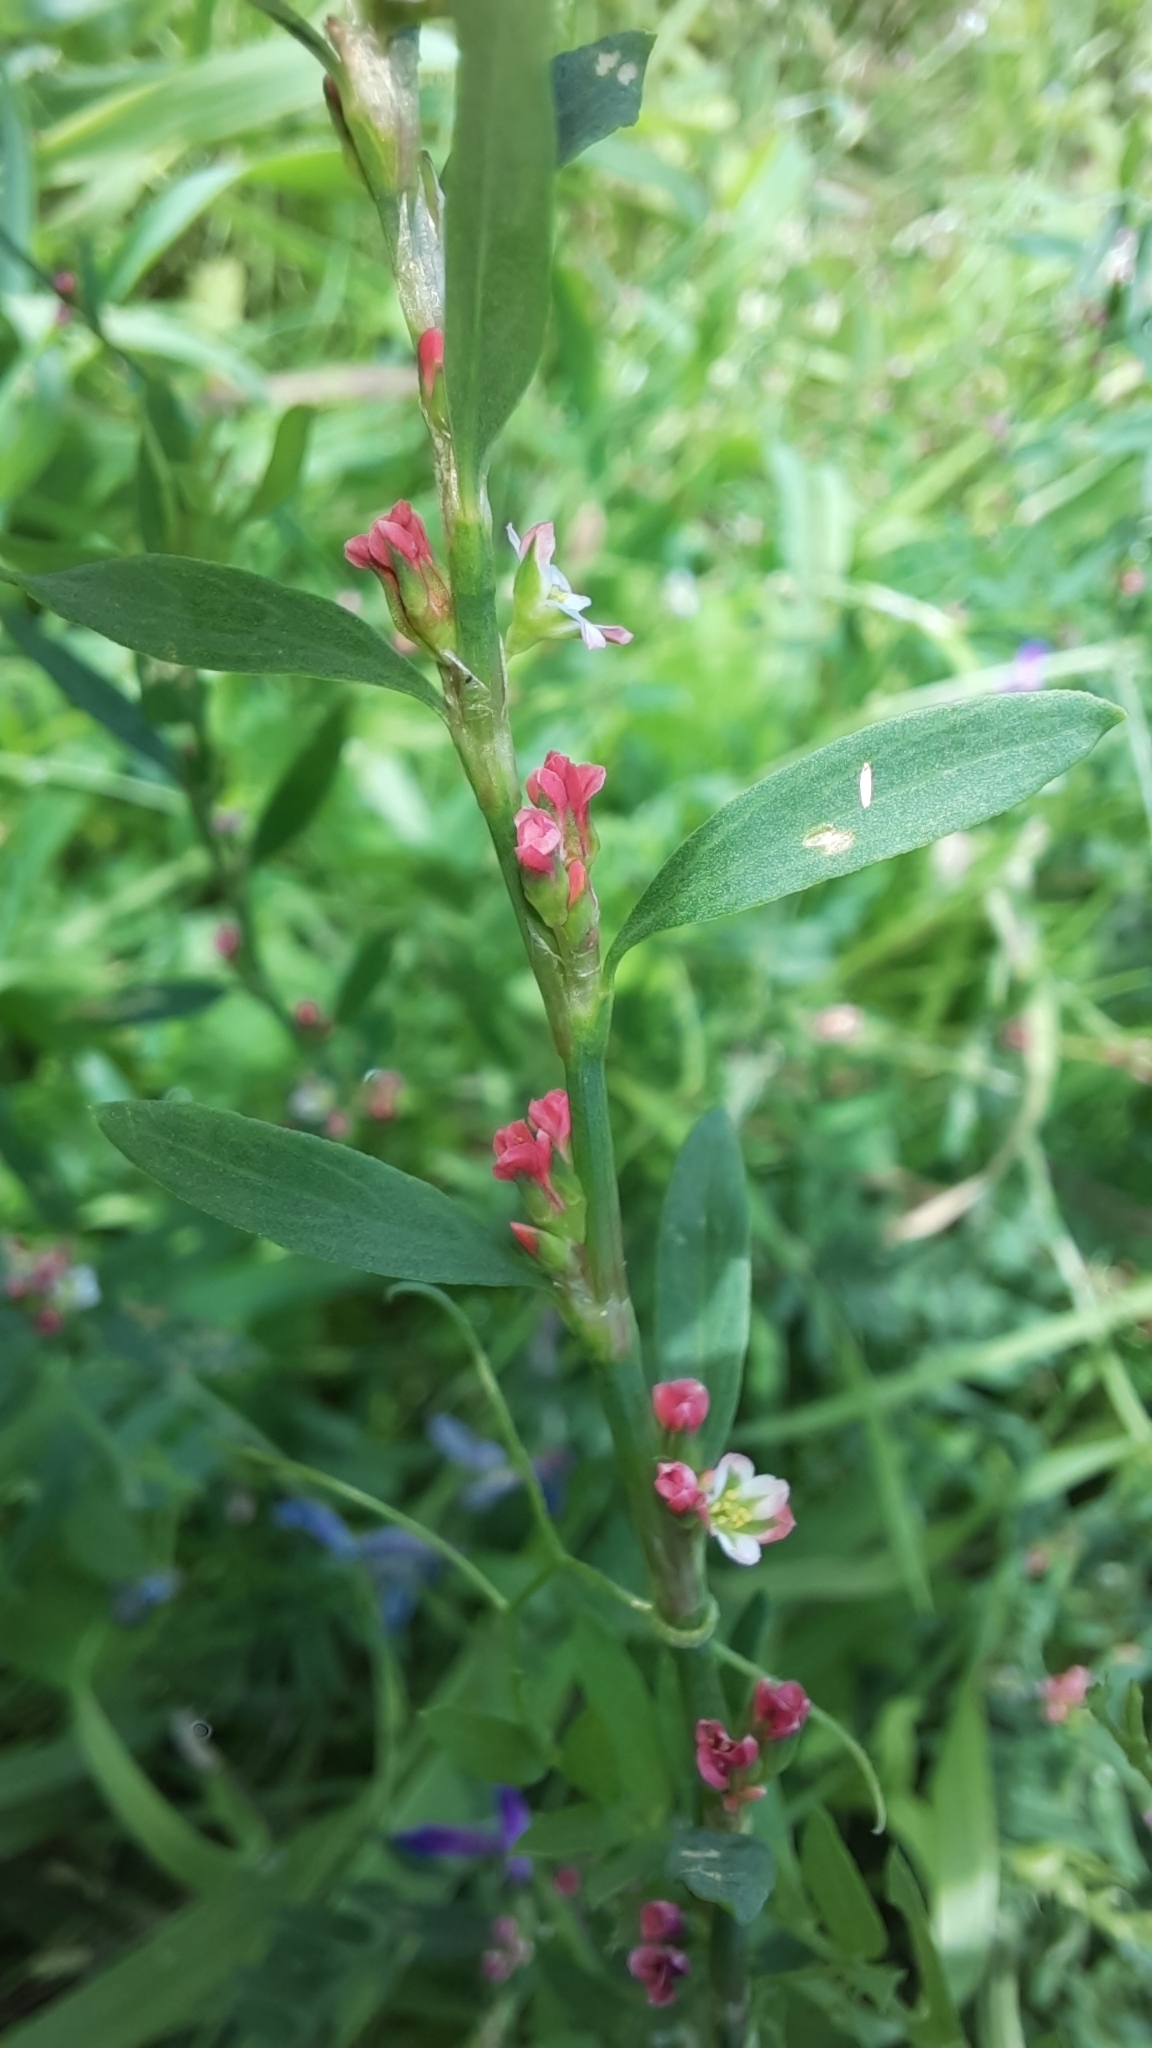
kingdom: Plantae
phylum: Tracheophyta
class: Magnoliopsida
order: Caryophyllales
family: Polygonaceae
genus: Polygonum
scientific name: Polygonum
